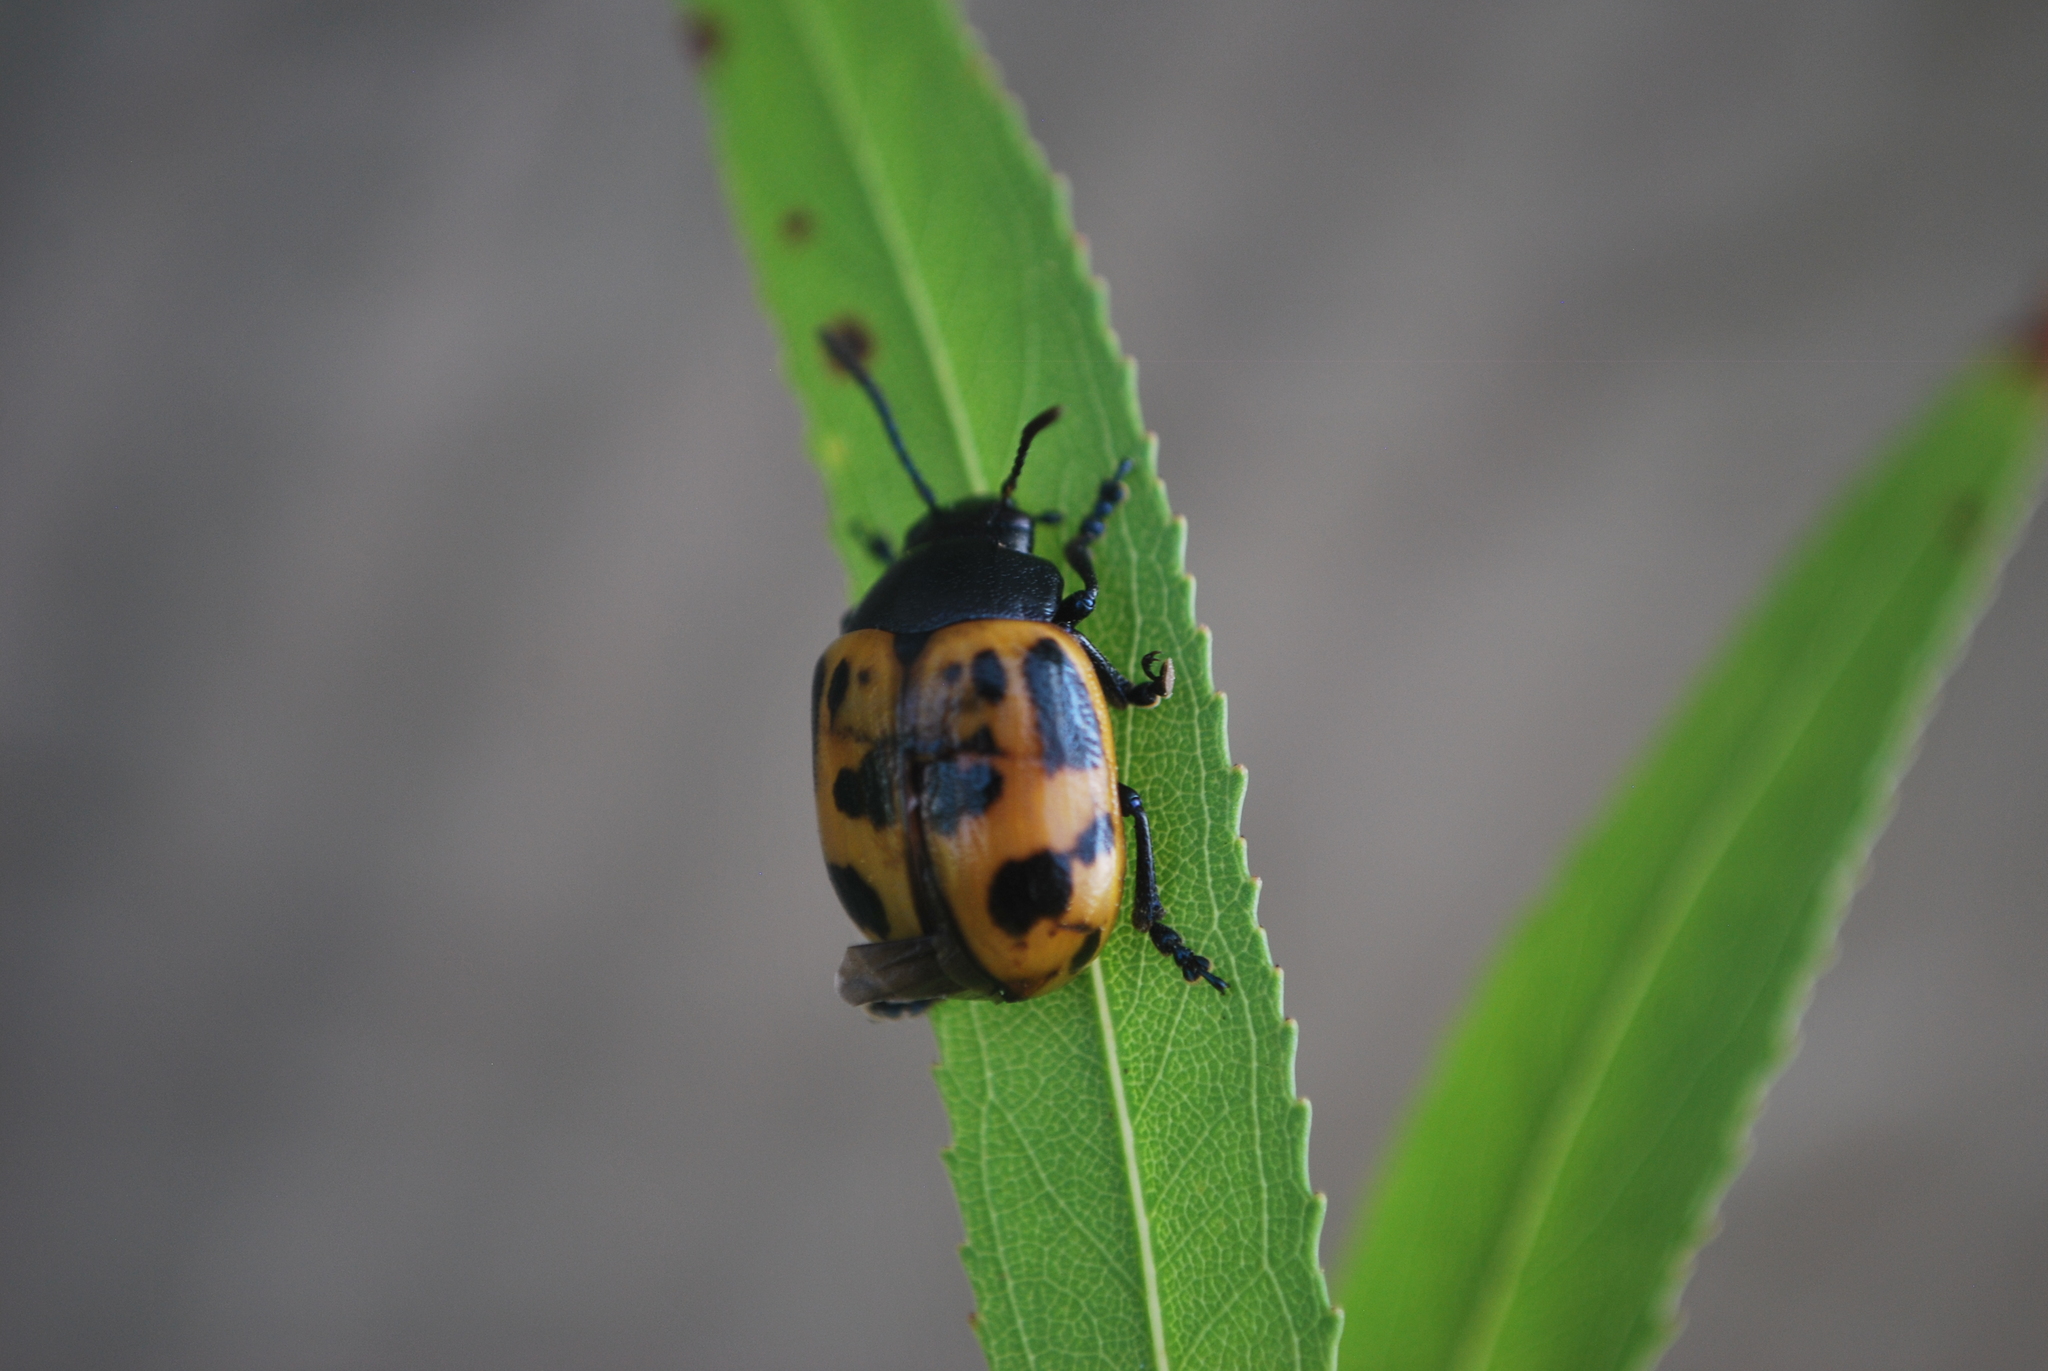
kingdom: Animalia
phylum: Arthropoda
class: Insecta
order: Coleoptera
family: Chrysomelidae
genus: Labidomera
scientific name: Labidomera clivicollis
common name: Swamp milkweed leaf beetle
